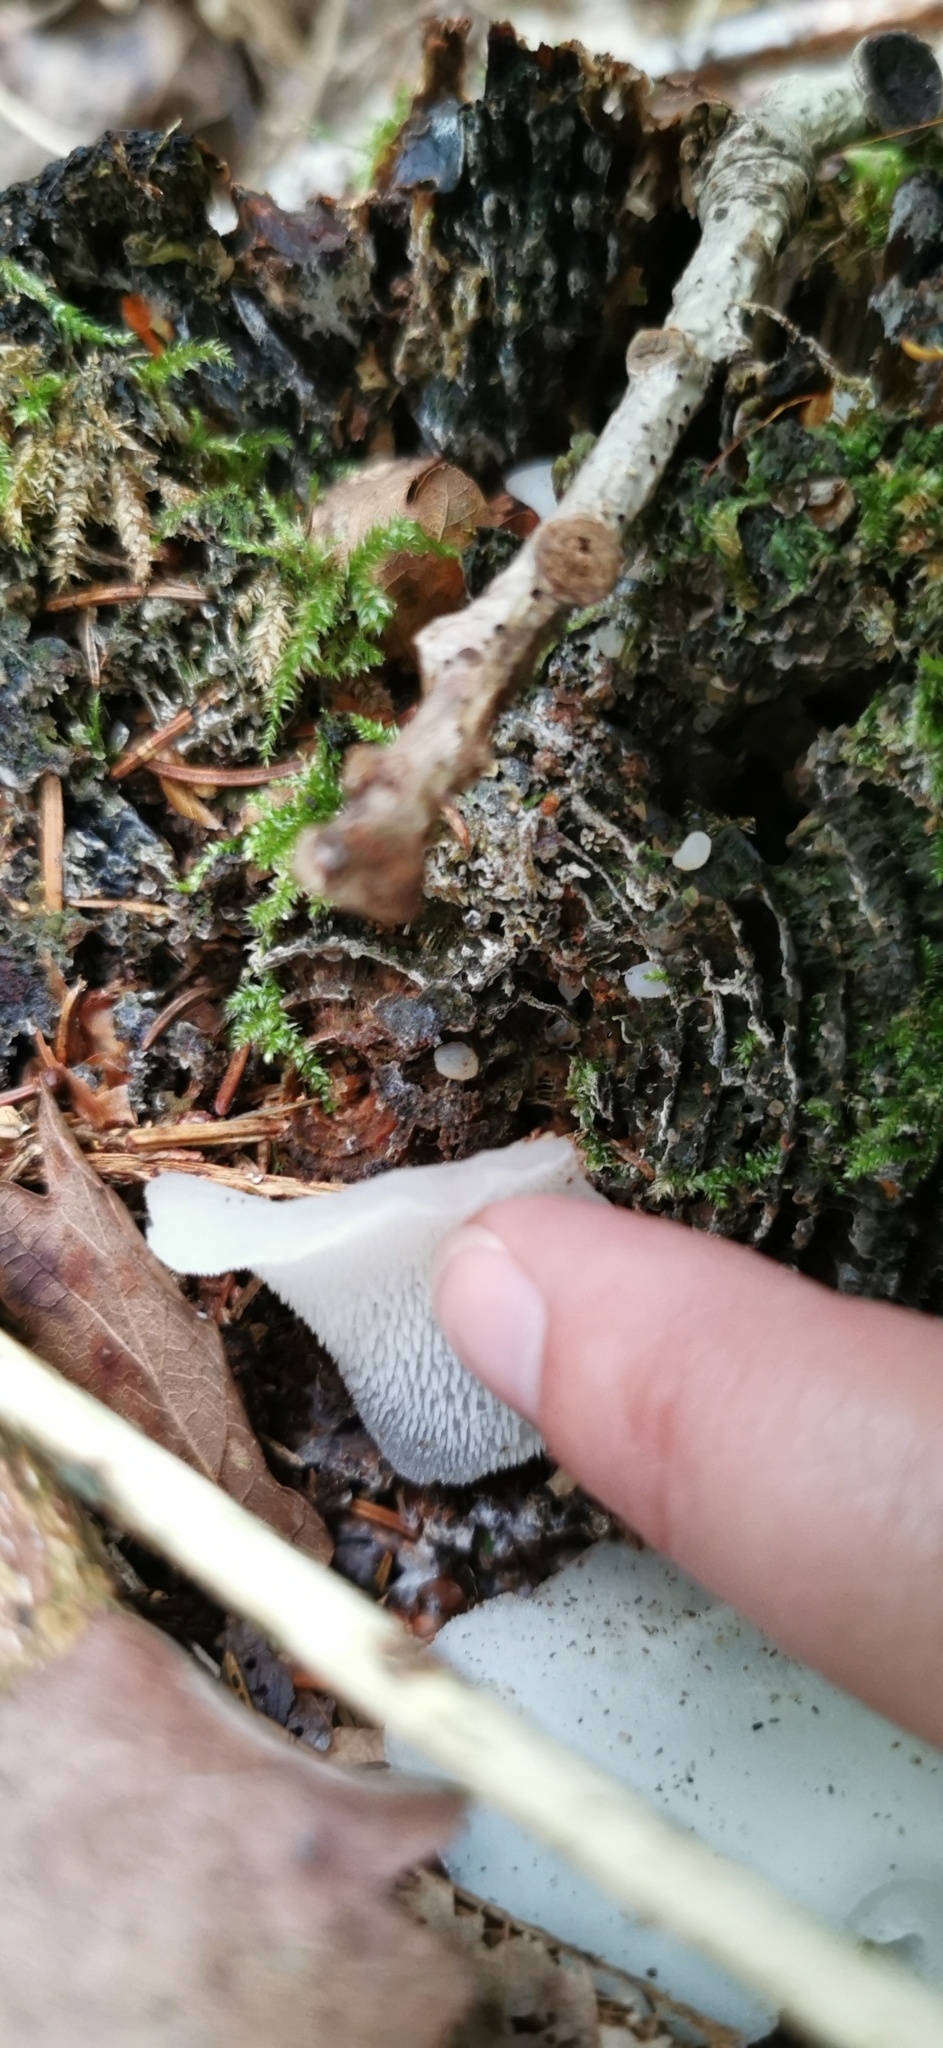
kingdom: Fungi
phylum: Basidiomycota
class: Agaricomycetes
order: Auriculariales
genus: Pseudohydnum
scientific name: Pseudohydnum gelatinosum
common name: Jelly tongue
